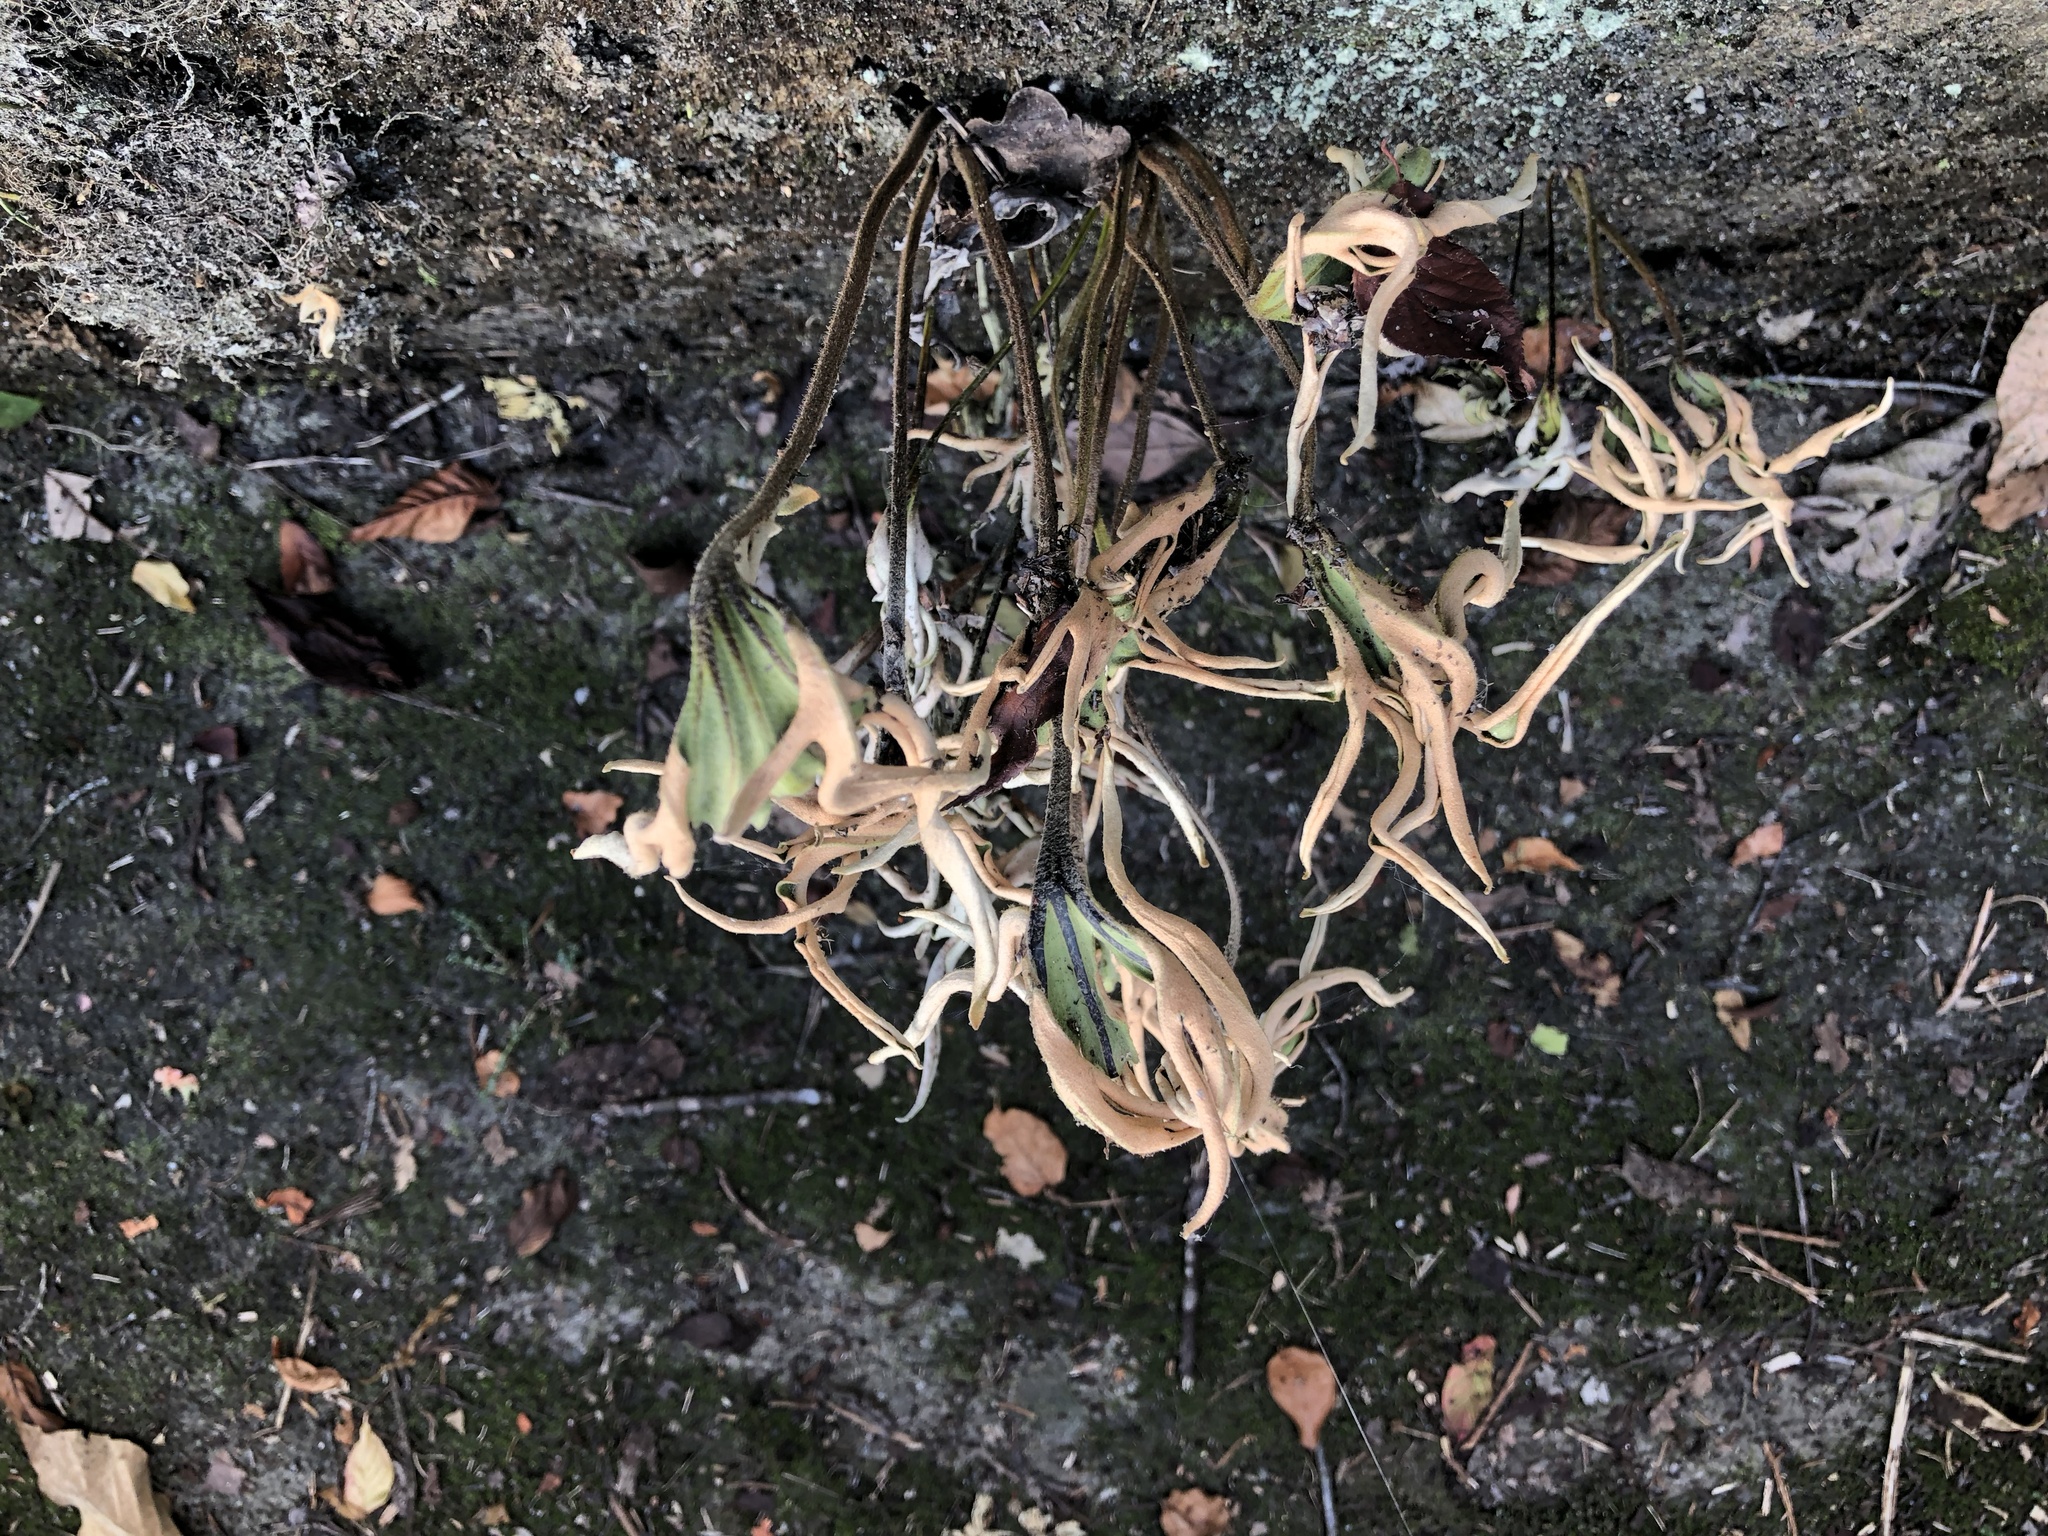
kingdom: Plantae
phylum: Tracheophyta
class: Polypodiopsida
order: Polypodiales
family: Polypodiaceae
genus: Pyrrosia
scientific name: Pyrrosia polydactyla
